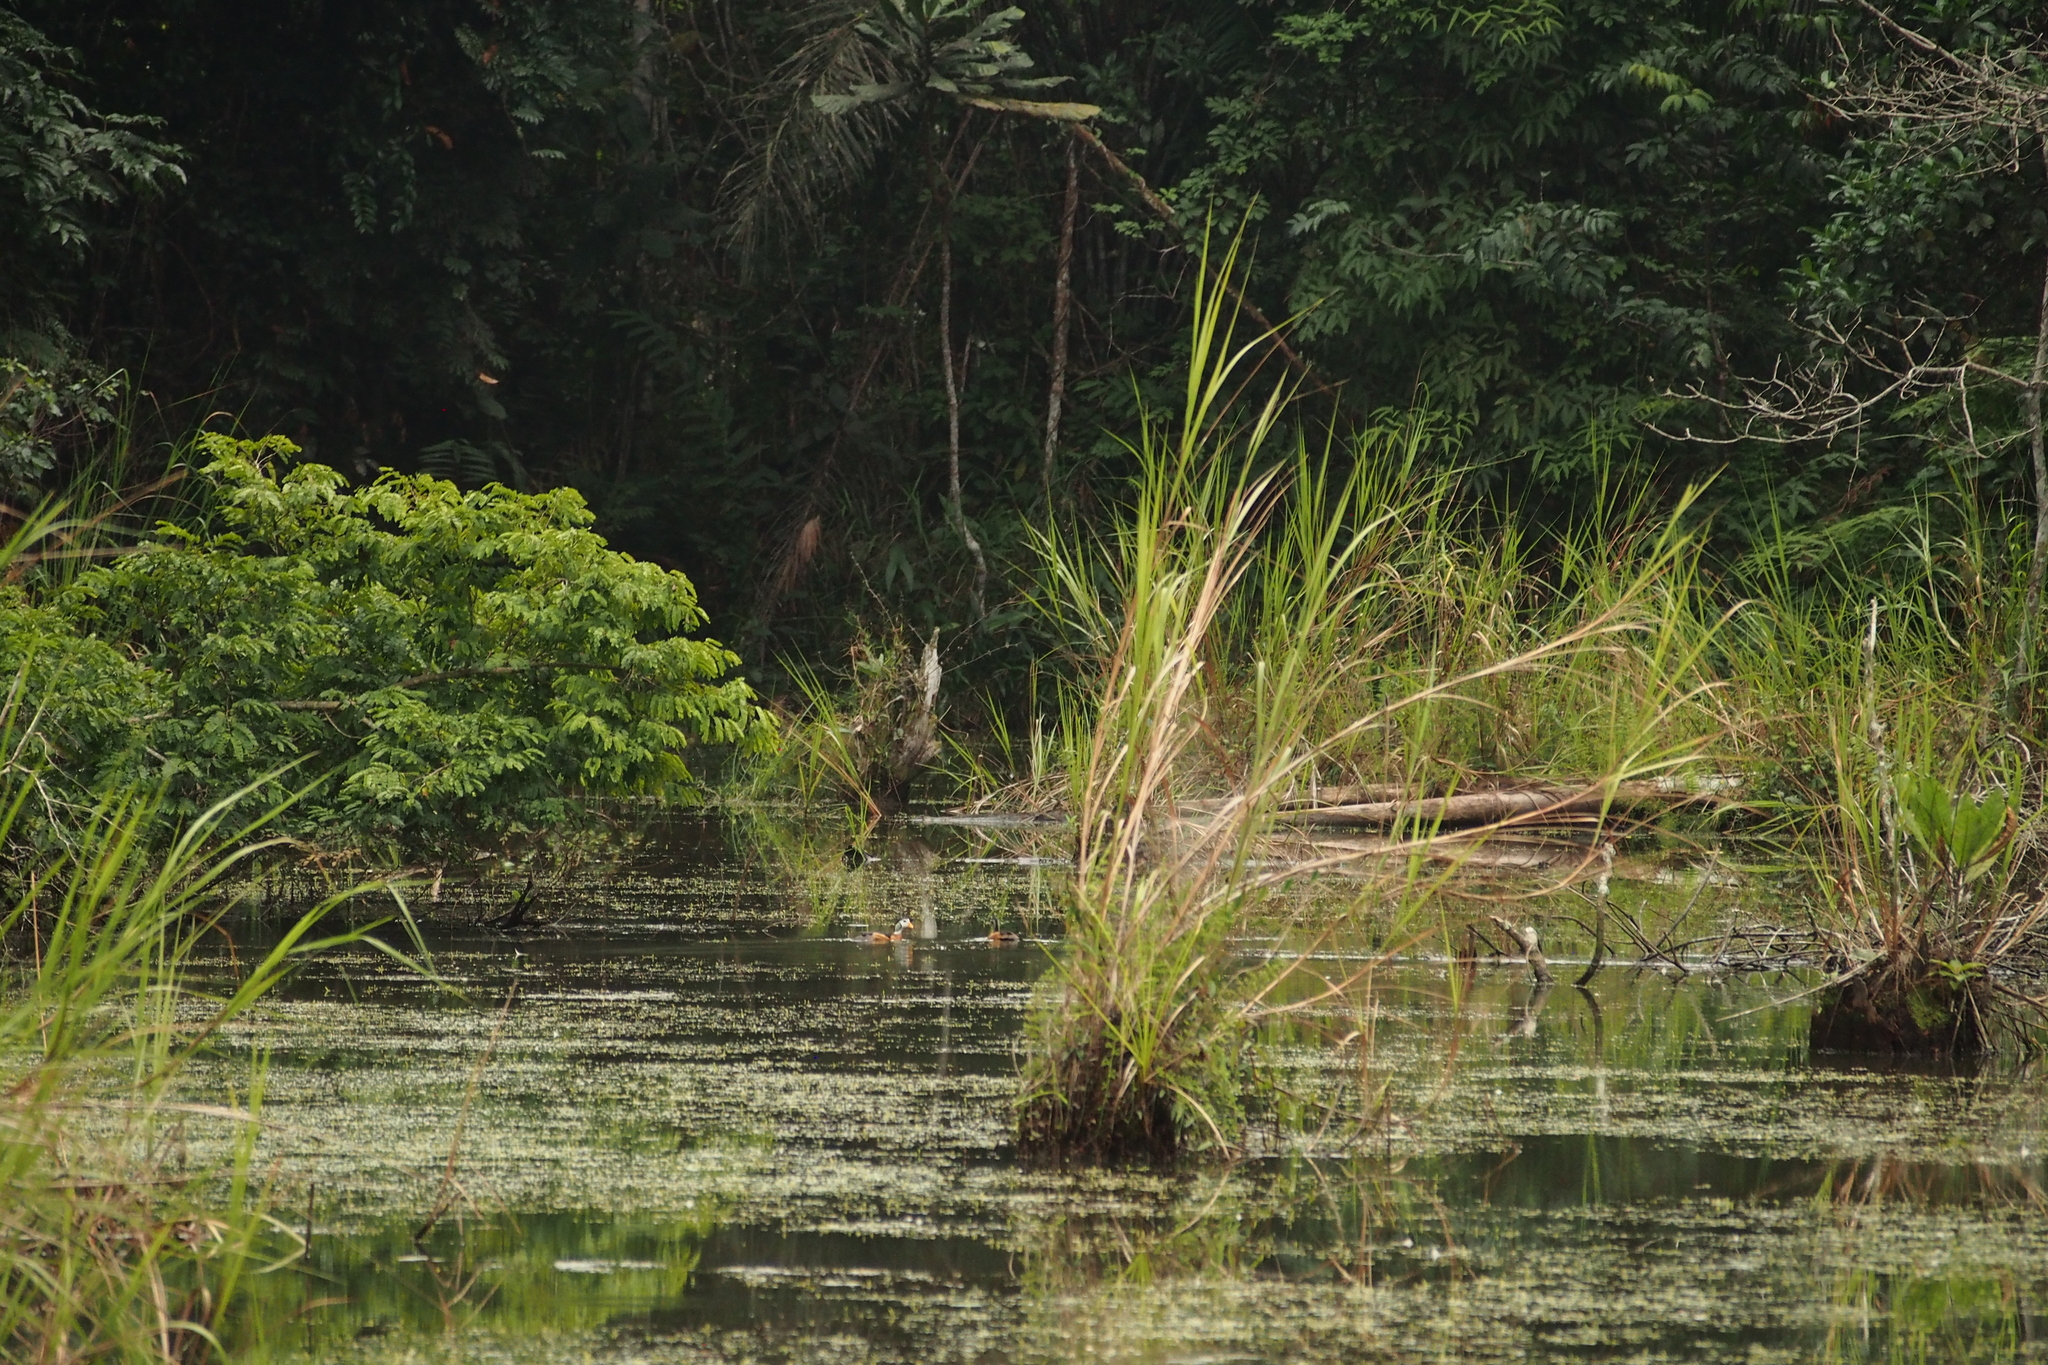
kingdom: Animalia
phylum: Chordata
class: Aves
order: Anseriformes
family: Anatidae
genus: Nettapus
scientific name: Nettapus auritus
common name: African pygmy-goose
